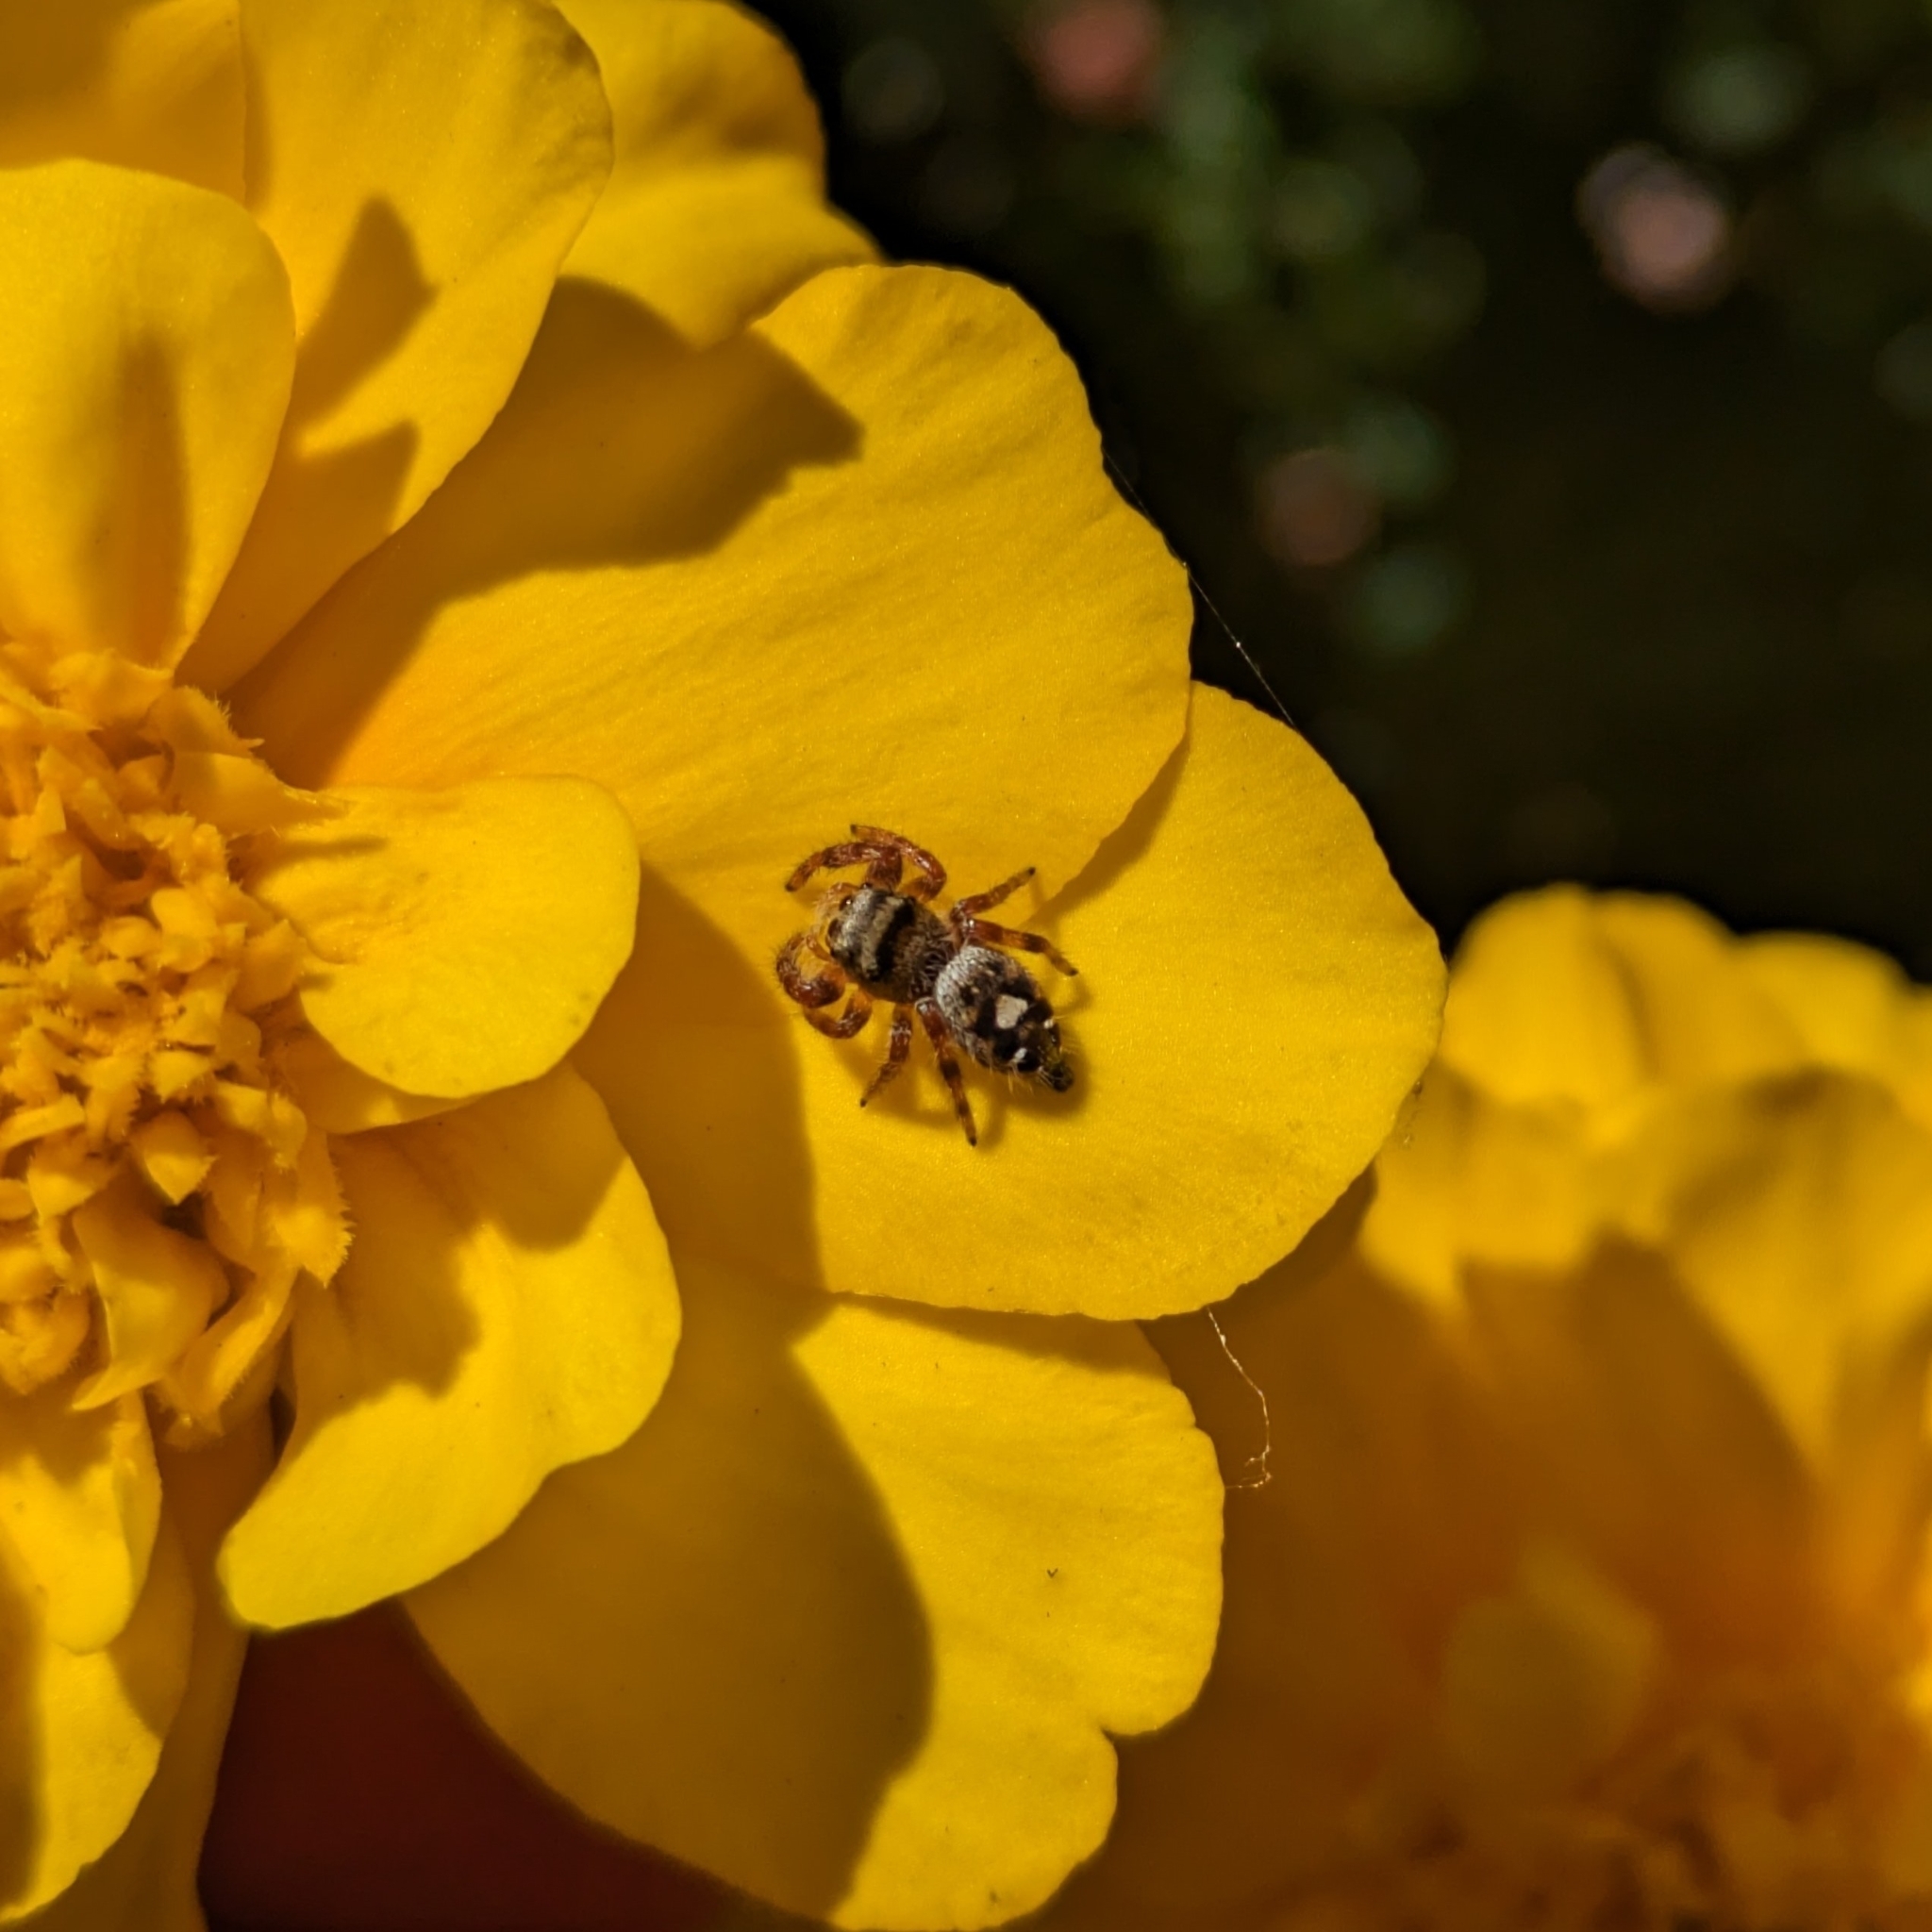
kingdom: Animalia
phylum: Arthropoda
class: Arachnida
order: Araneae
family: Salticidae
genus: Phidippus
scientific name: Phidippus audax
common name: Bold jumper
